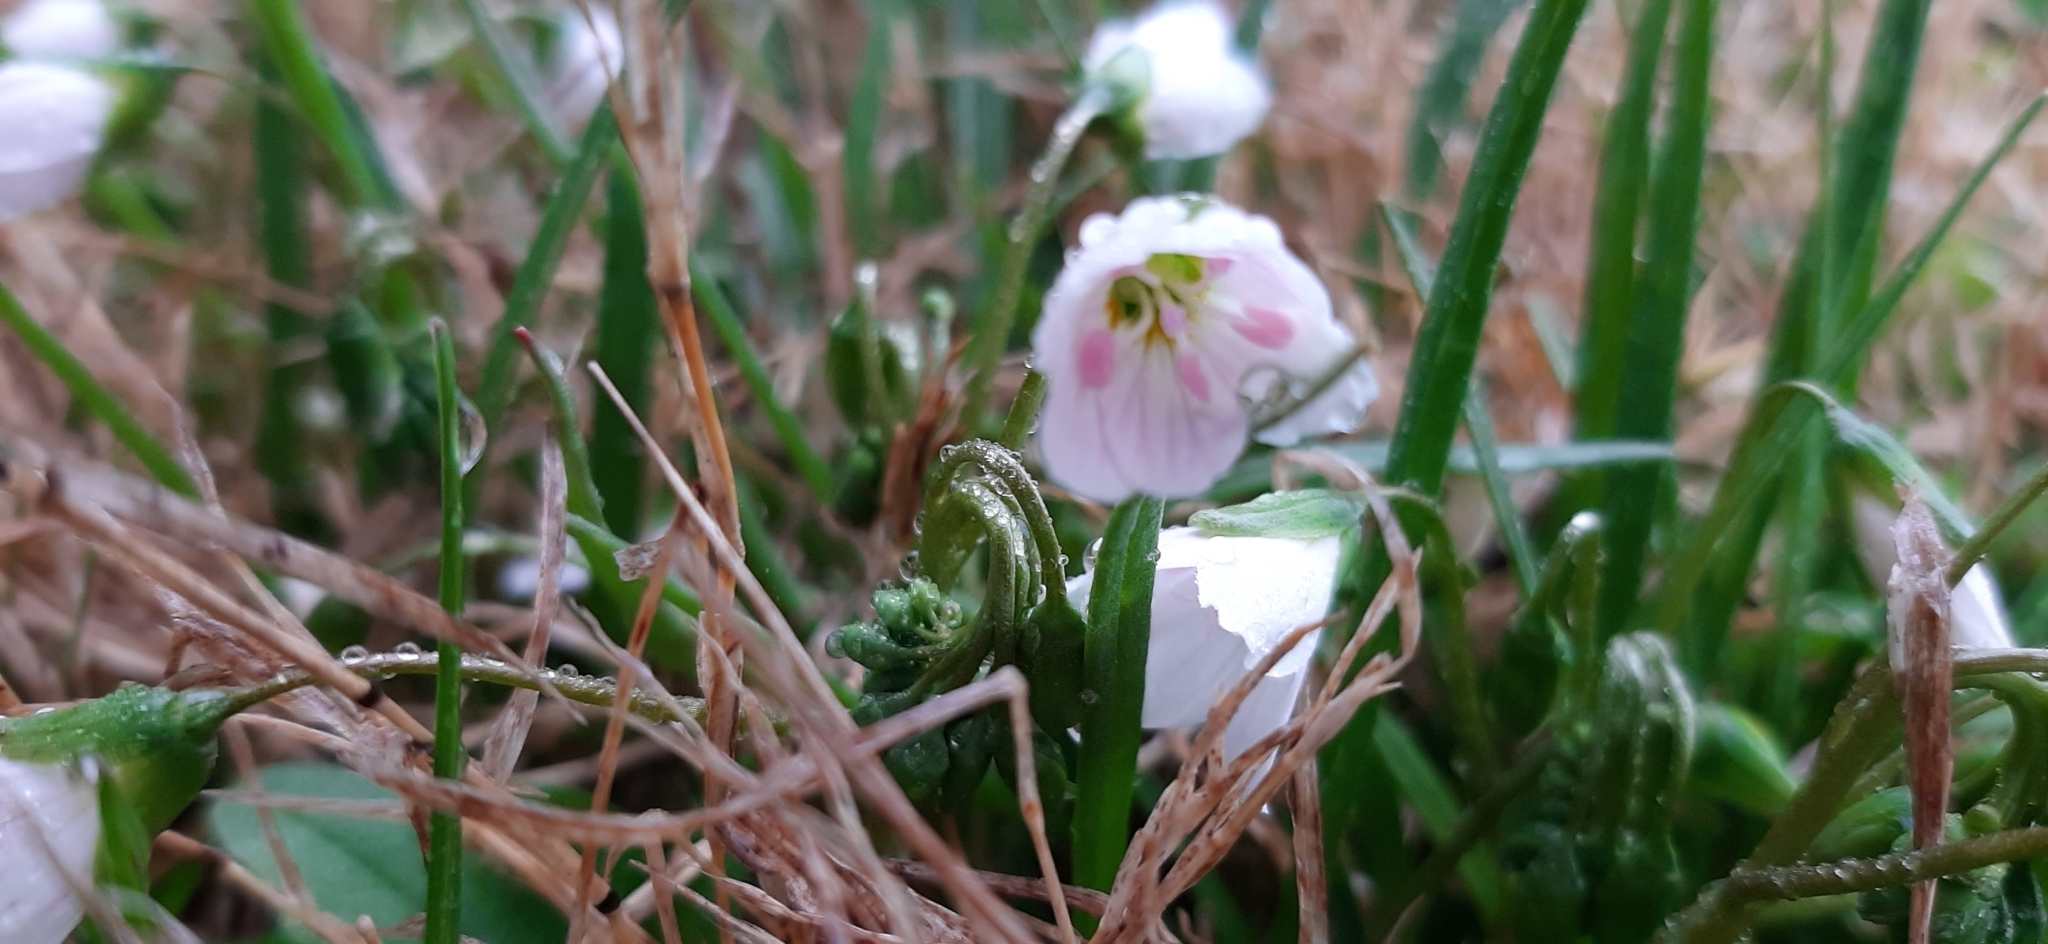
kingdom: Plantae
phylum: Tracheophyta
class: Magnoliopsida
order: Caryophyllales
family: Montiaceae
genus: Claytonia
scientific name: Claytonia virginica
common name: Virginia springbeauty
